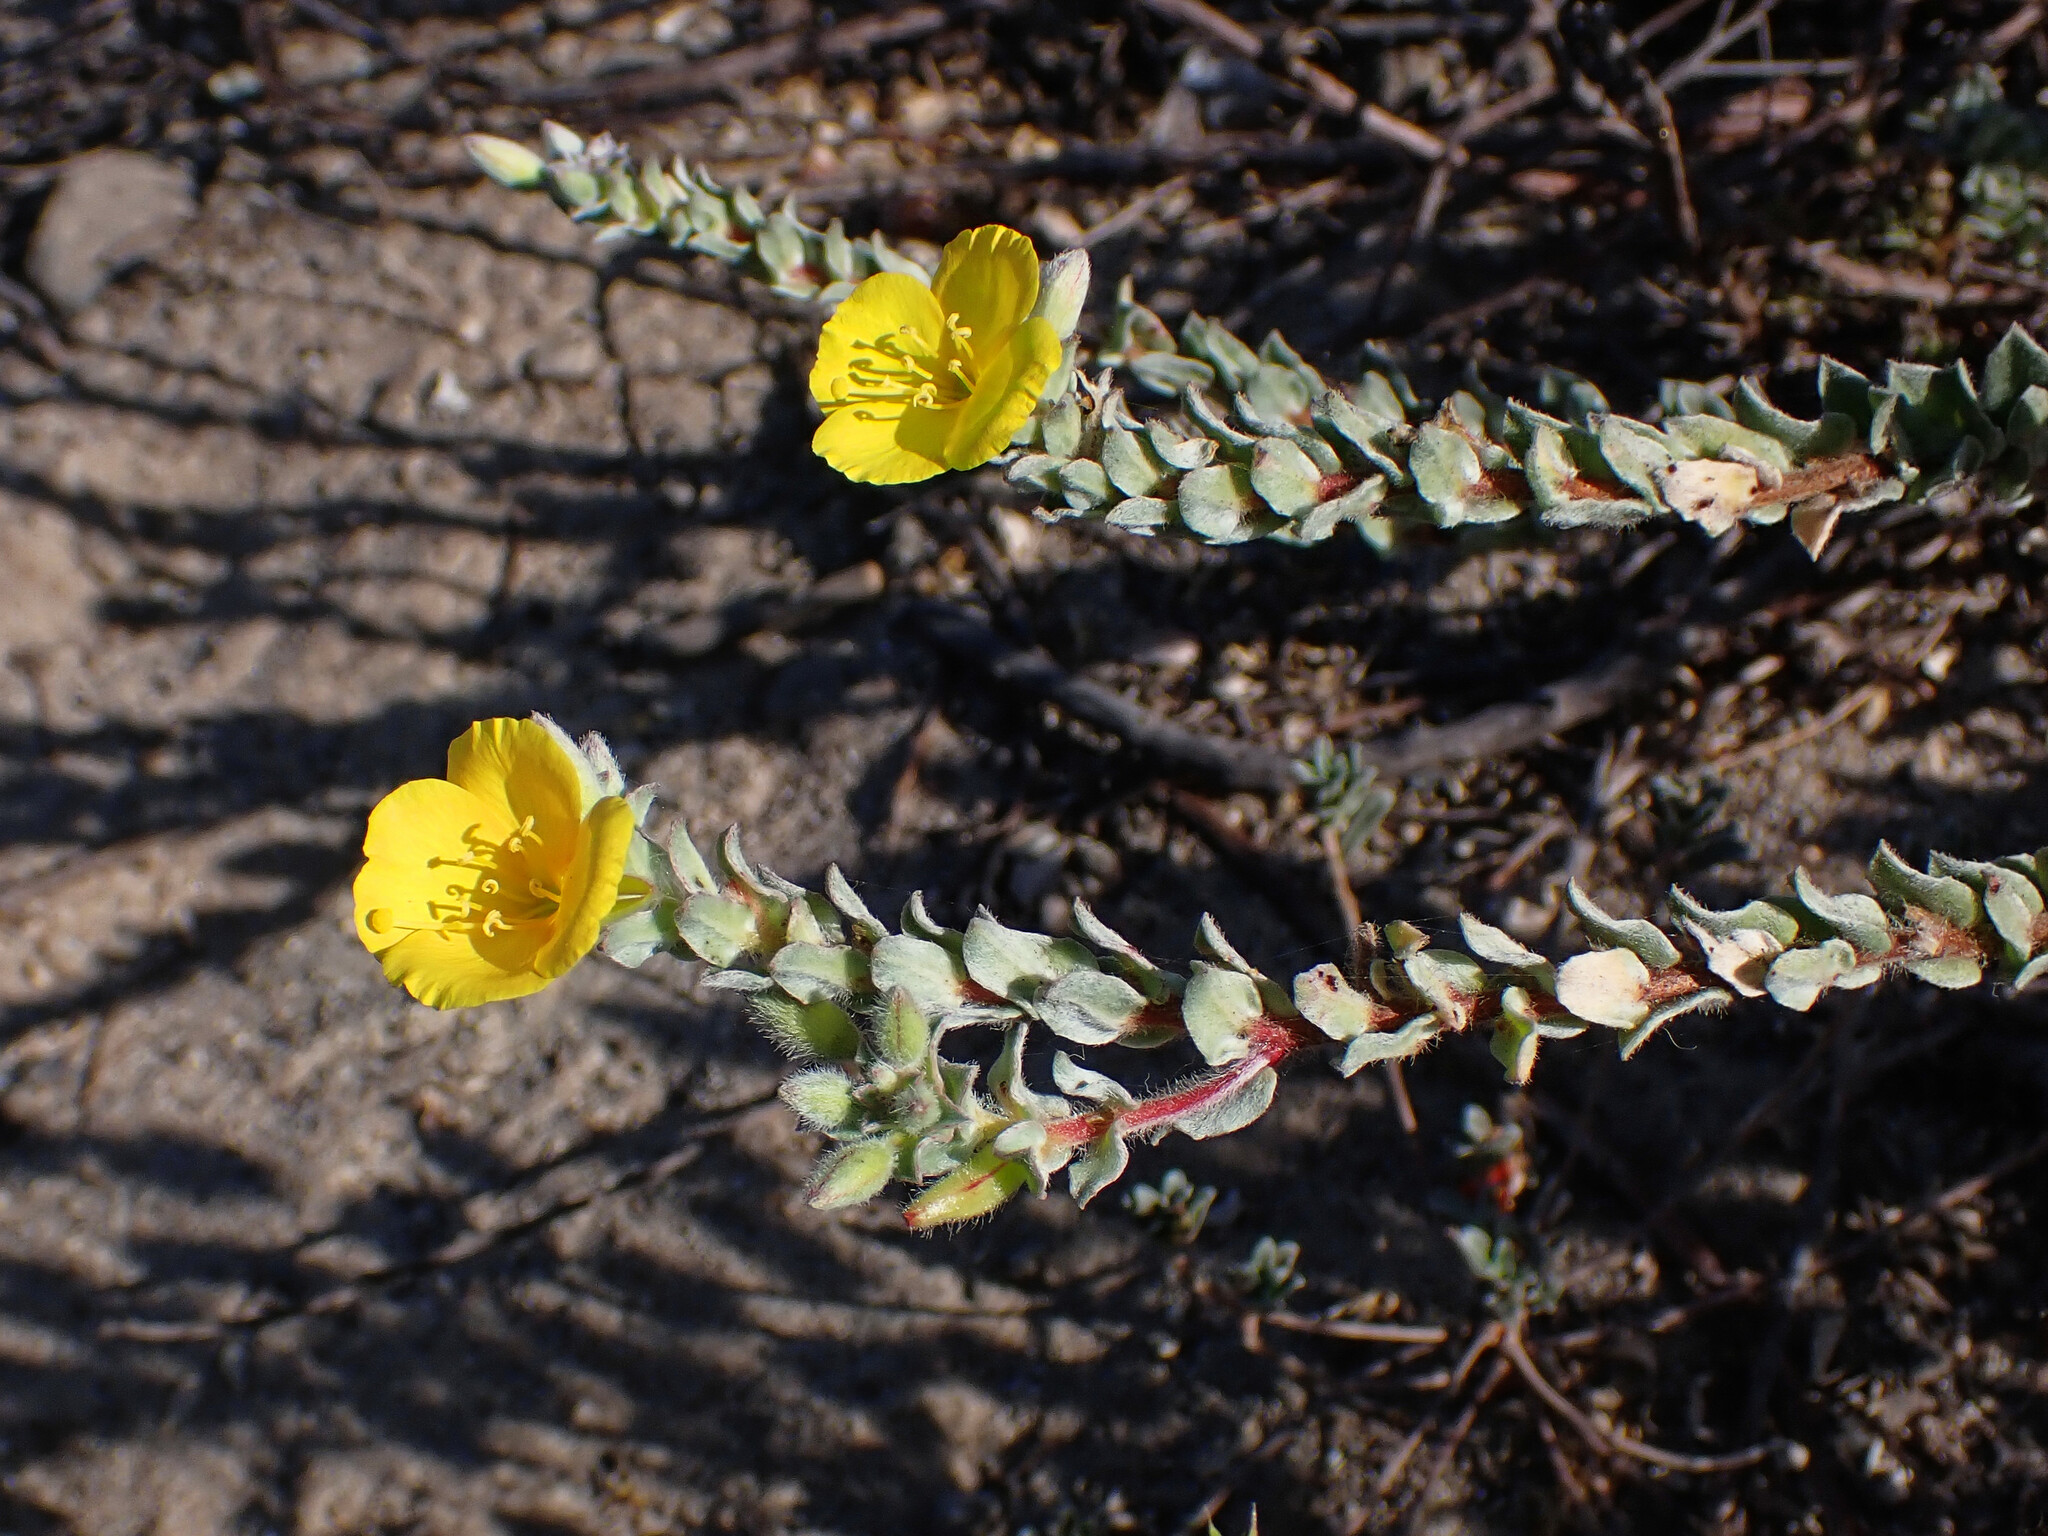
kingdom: Plantae
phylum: Tracheophyta
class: Magnoliopsida
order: Myrtales
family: Onagraceae
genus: Camissoniopsis
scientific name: Camissoniopsis cheiranthifolia
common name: Beach suncup
